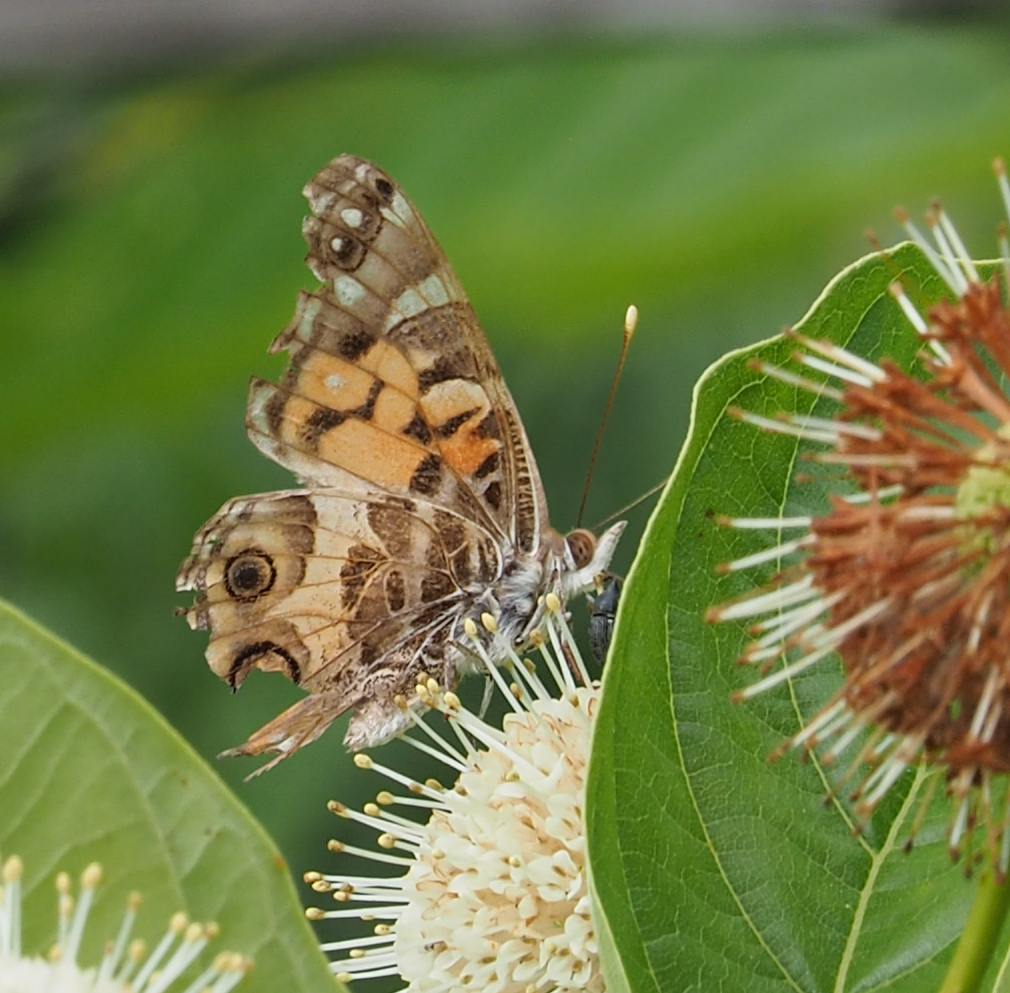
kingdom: Animalia
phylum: Arthropoda
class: Insecta
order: Lepidoptera
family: Nymphalidae
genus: Vanessa
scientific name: Vanessa virginiensis
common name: American lady
